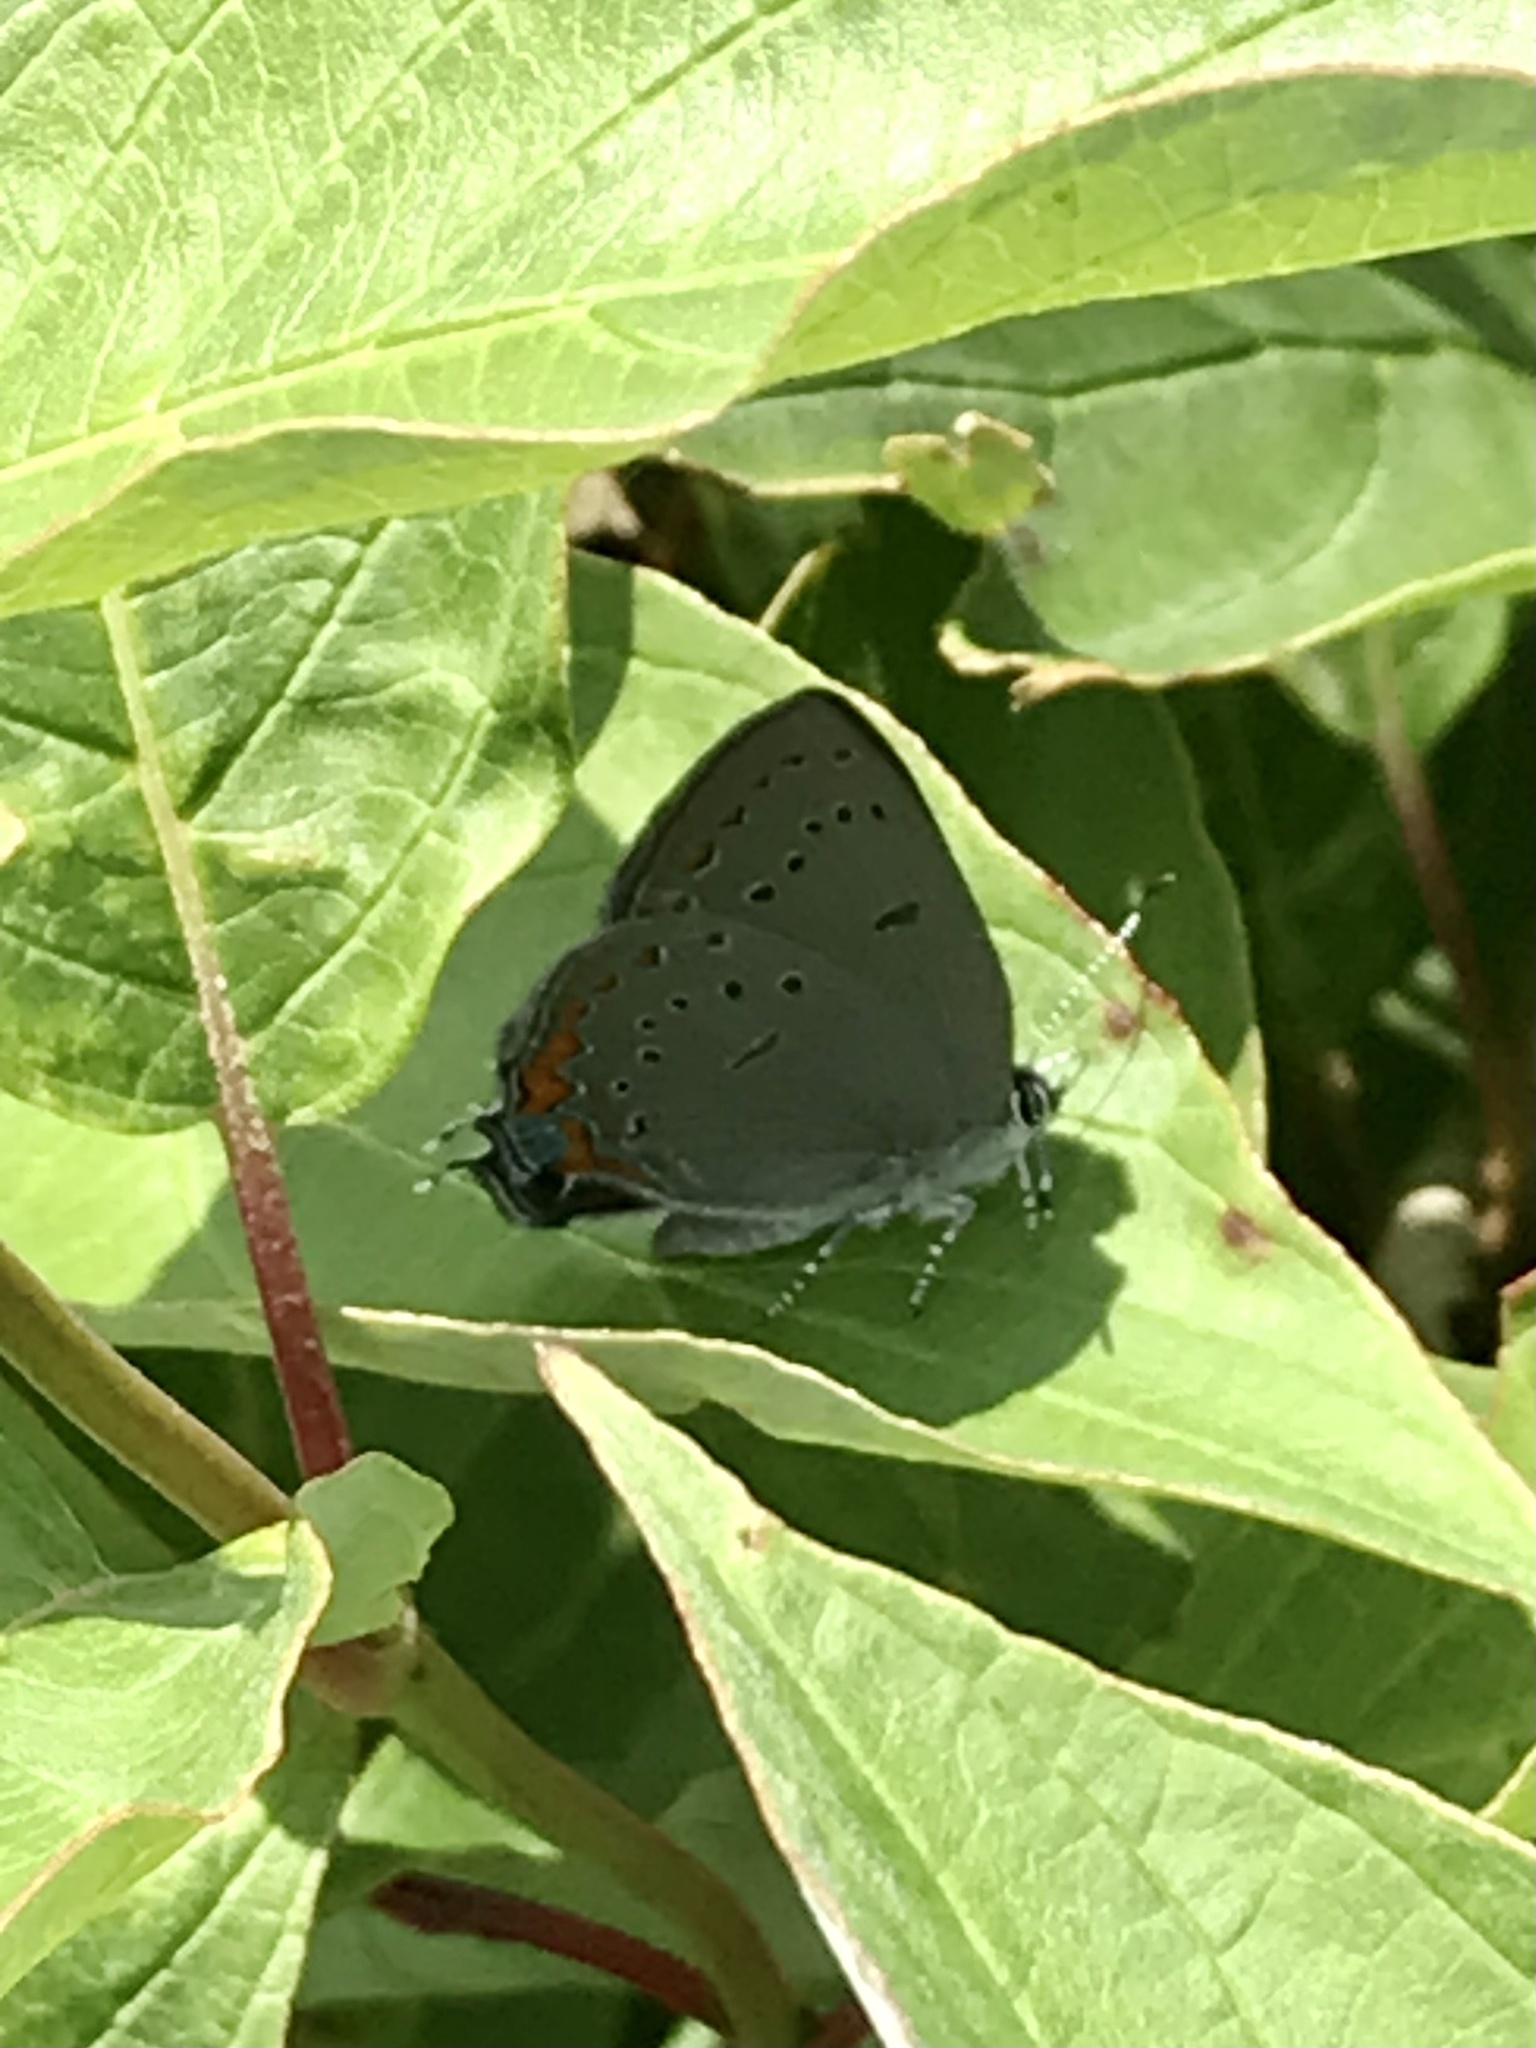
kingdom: Animalia
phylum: Arthropoda
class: Insecta
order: Lepidoptera
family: Lycaenidae
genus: Strymon
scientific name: Strymon acadica
